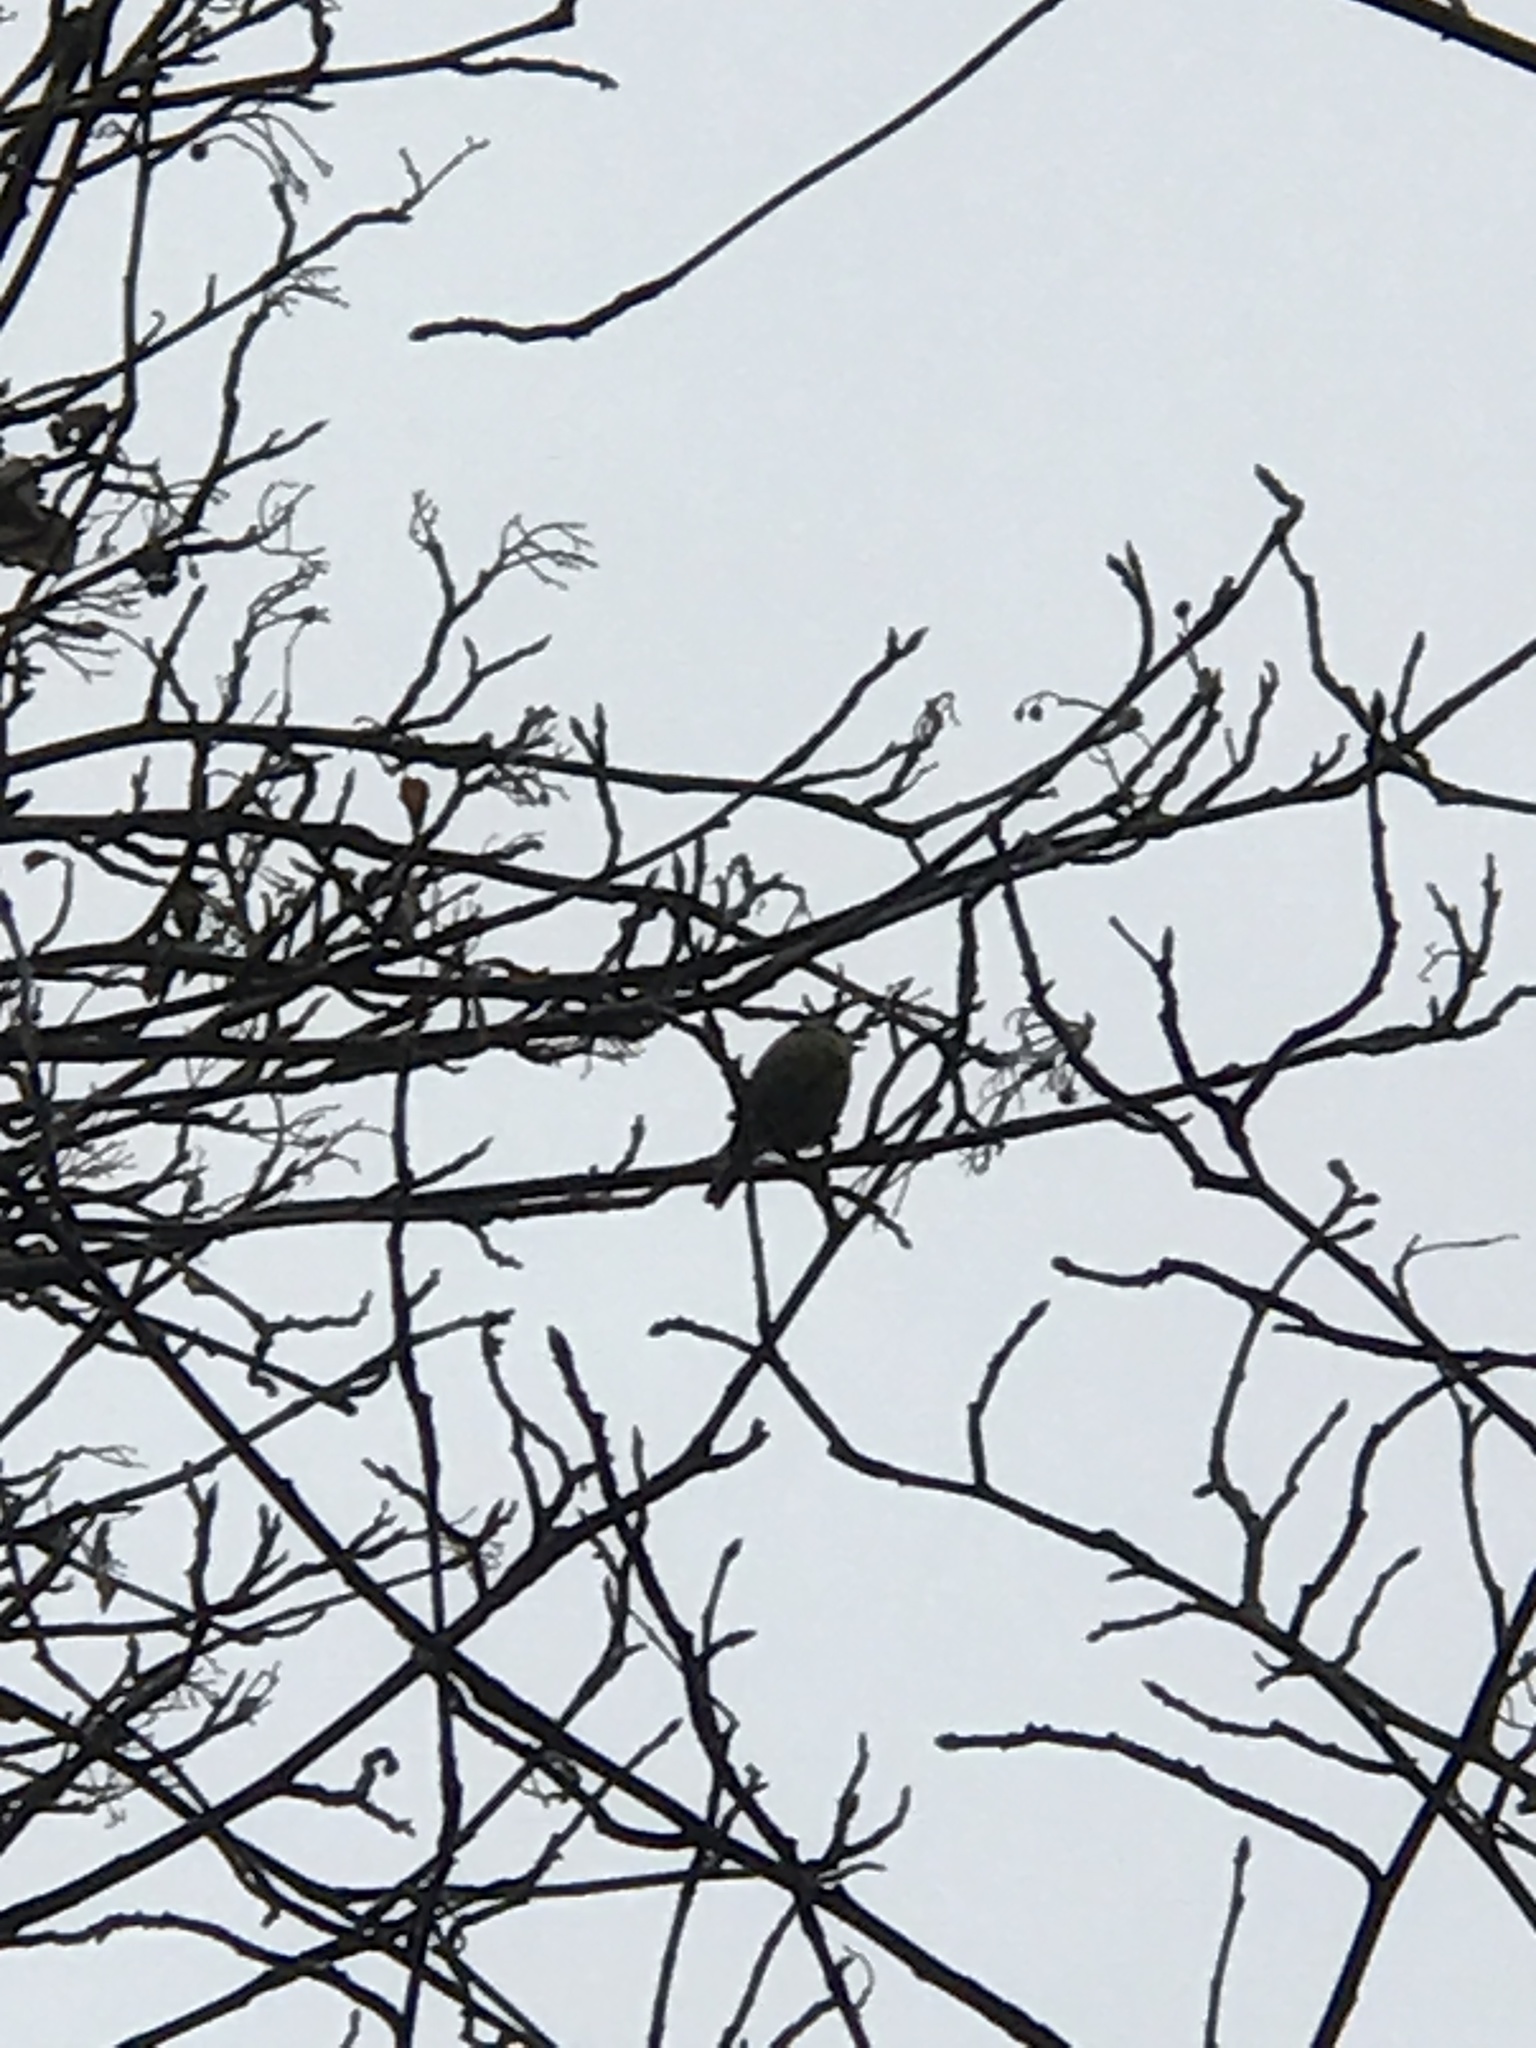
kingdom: Animalia
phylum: Chordata
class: Aves
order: Passeriformes
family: Paridae
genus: Cyanistes
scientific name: Cyanistes caeruleus
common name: Eurasian blue tit
